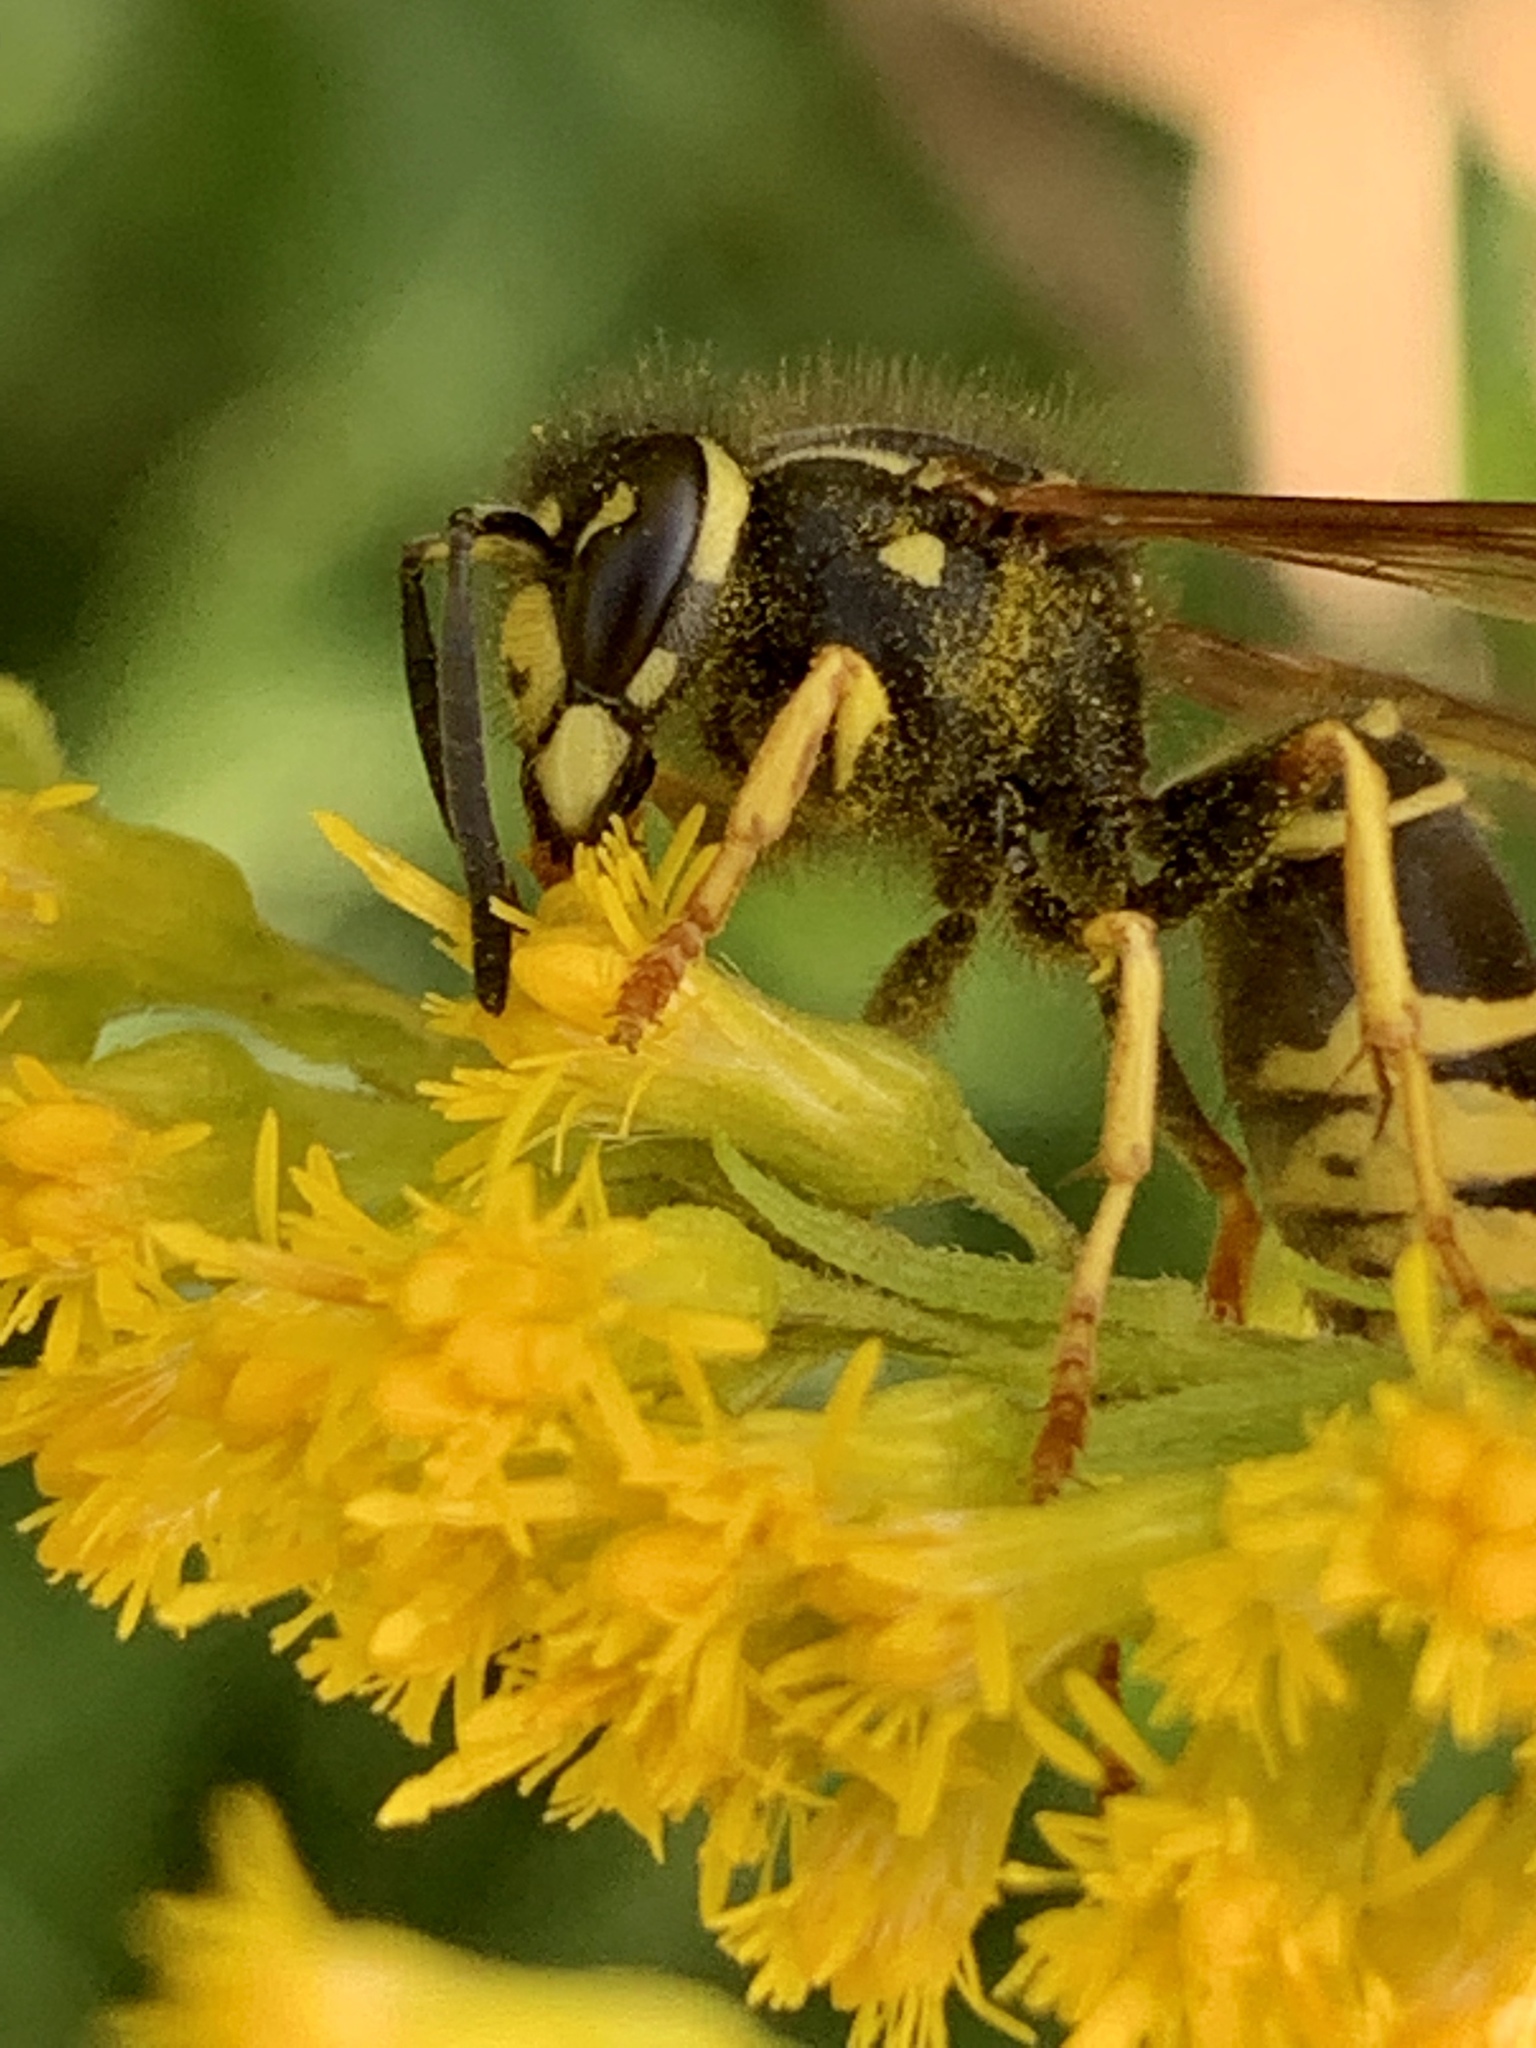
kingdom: Animalia
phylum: Arthropoda
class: Insecta
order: Hymenoptera
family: Vespidae
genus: Vespula
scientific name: Vespula vidua
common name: Widow yellowjacket
